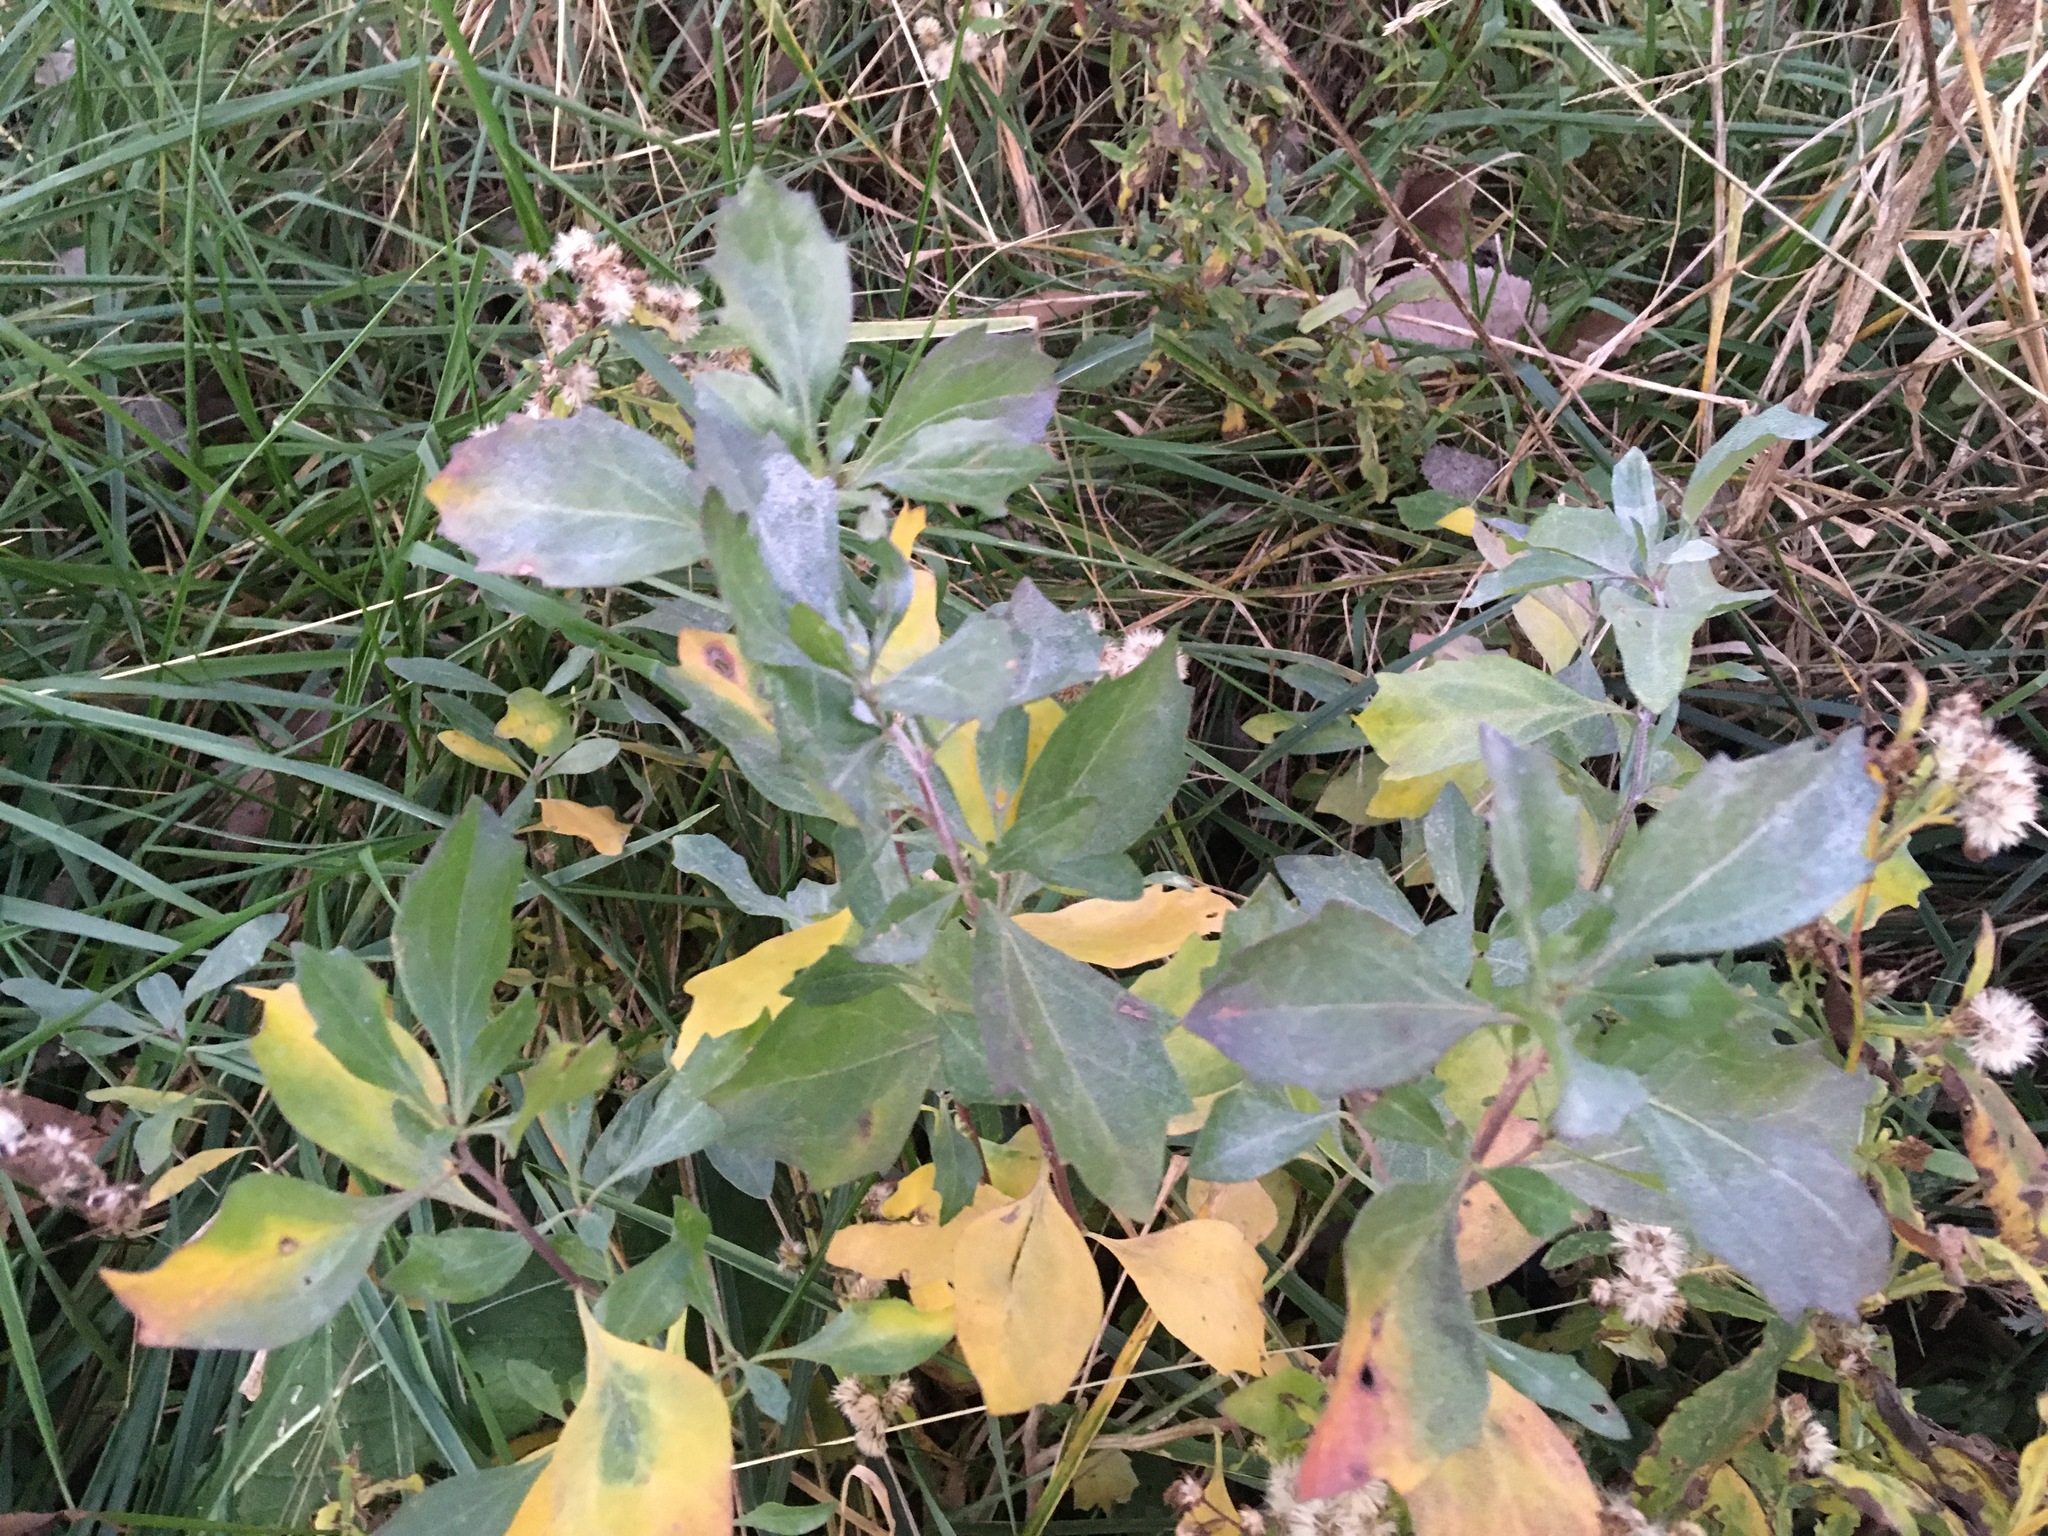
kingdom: Plantae
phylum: Tracheophyta
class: Magnoliopsida
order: Asterales
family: Asteraceae
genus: Baccharis
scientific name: Baccharis halimifolia
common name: Eastern baccharis
